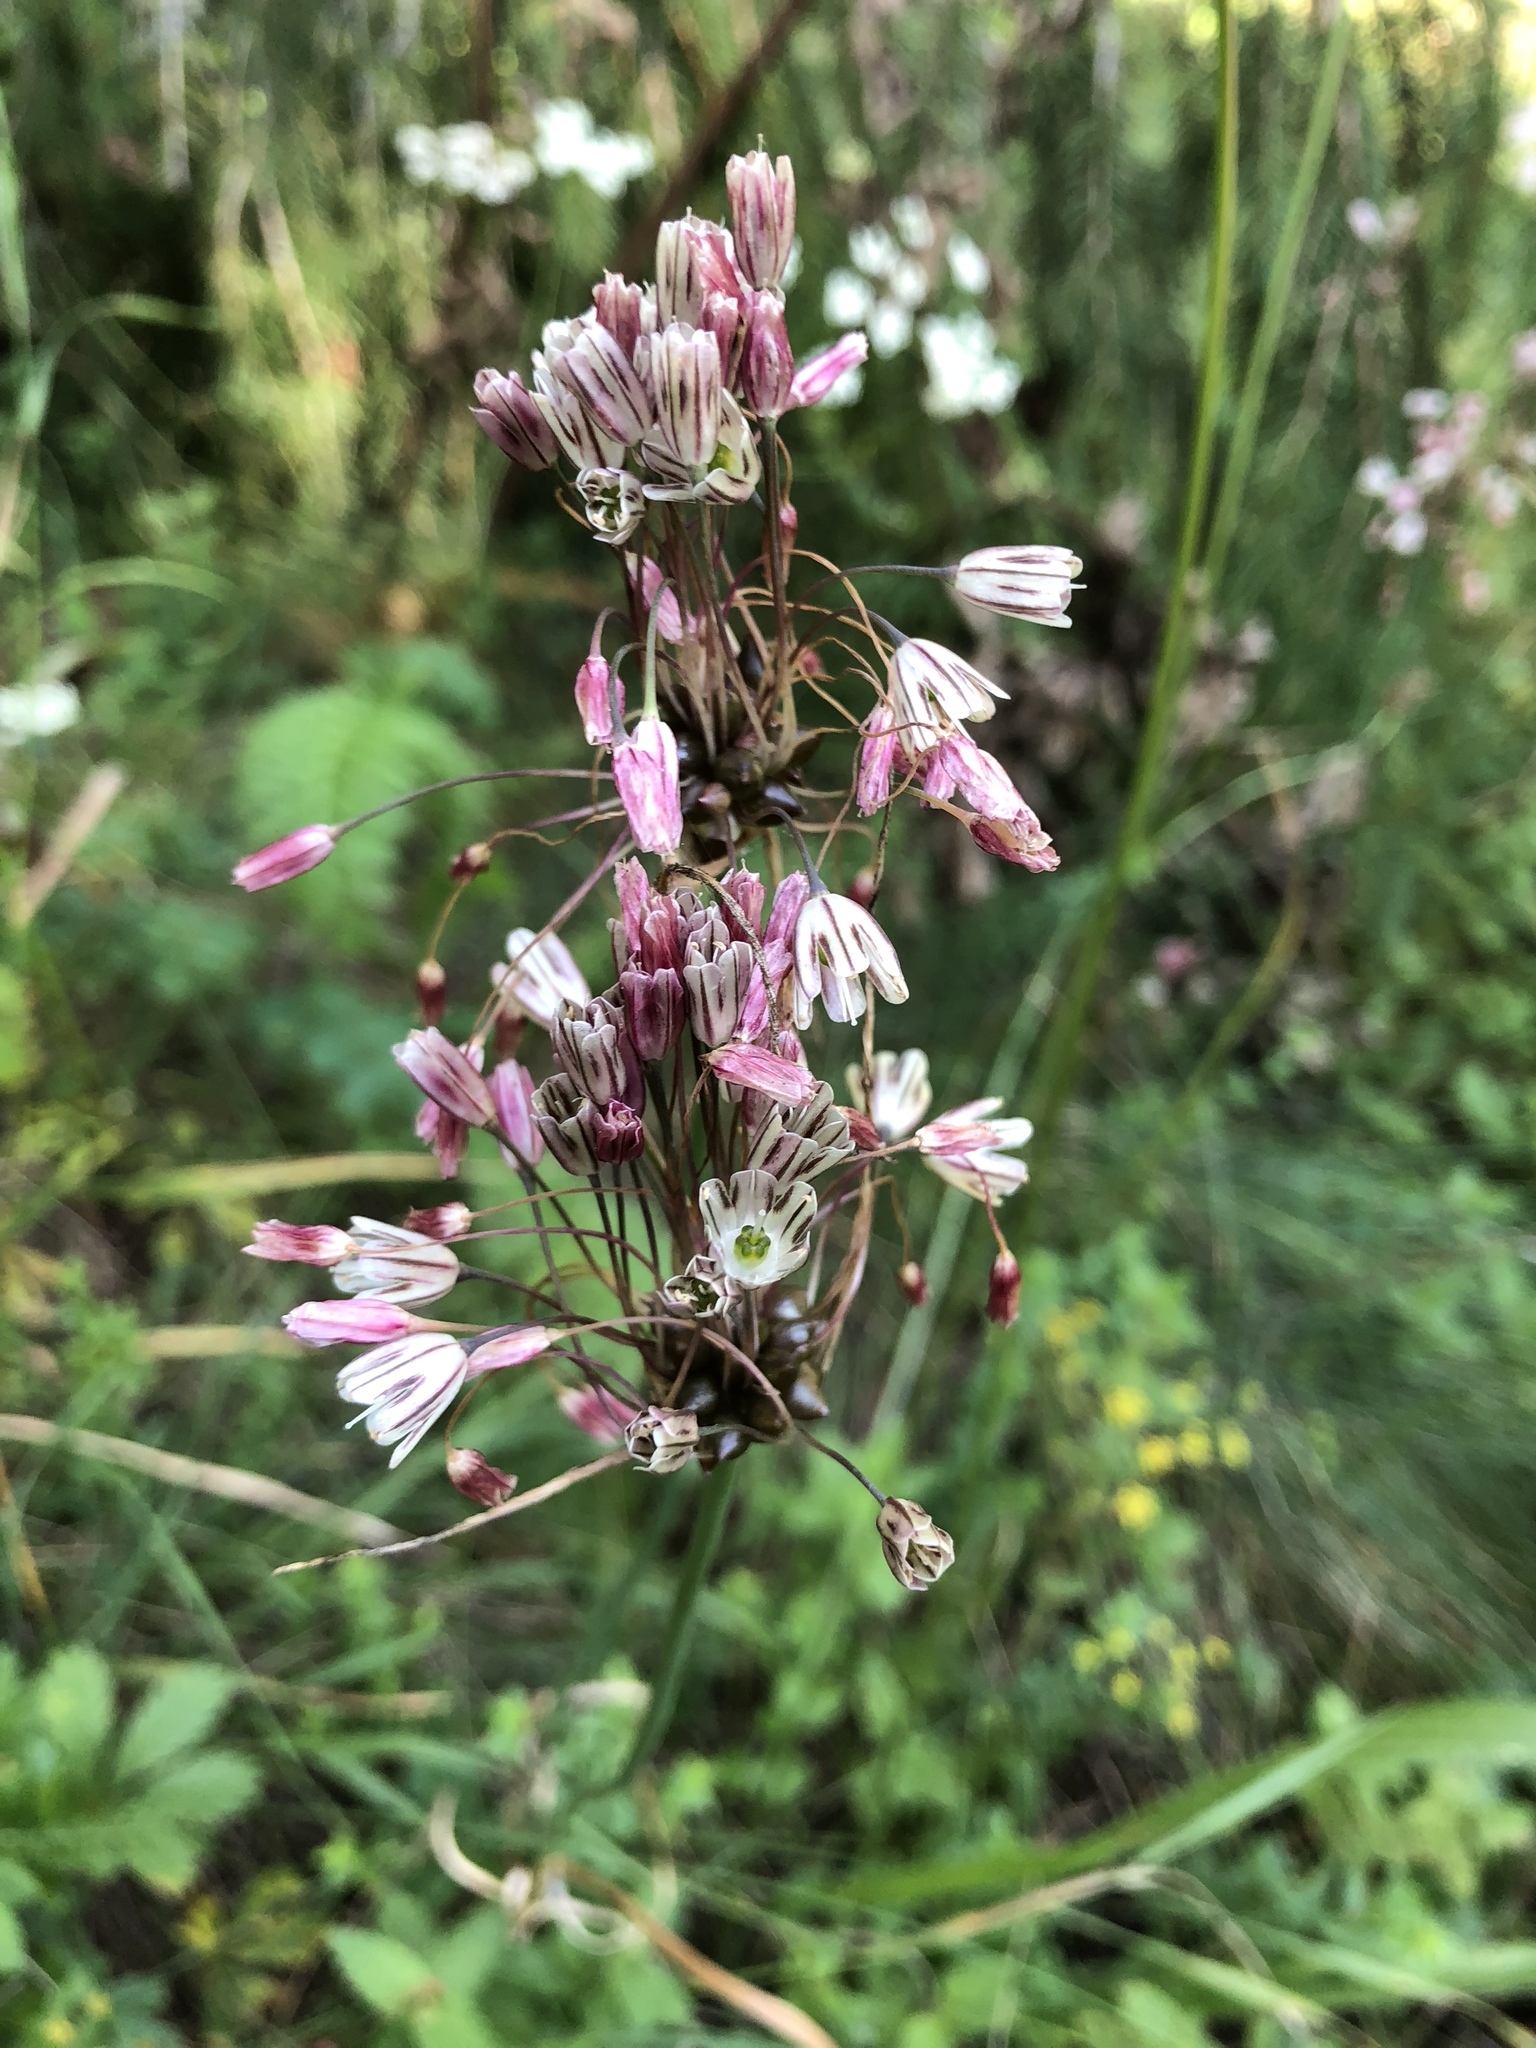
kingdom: Plantae
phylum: Tracheophyta
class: Liliopsida
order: Asparagales
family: Amaryllidaceae
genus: Allium
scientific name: Allium oleraceum
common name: Field garlic
